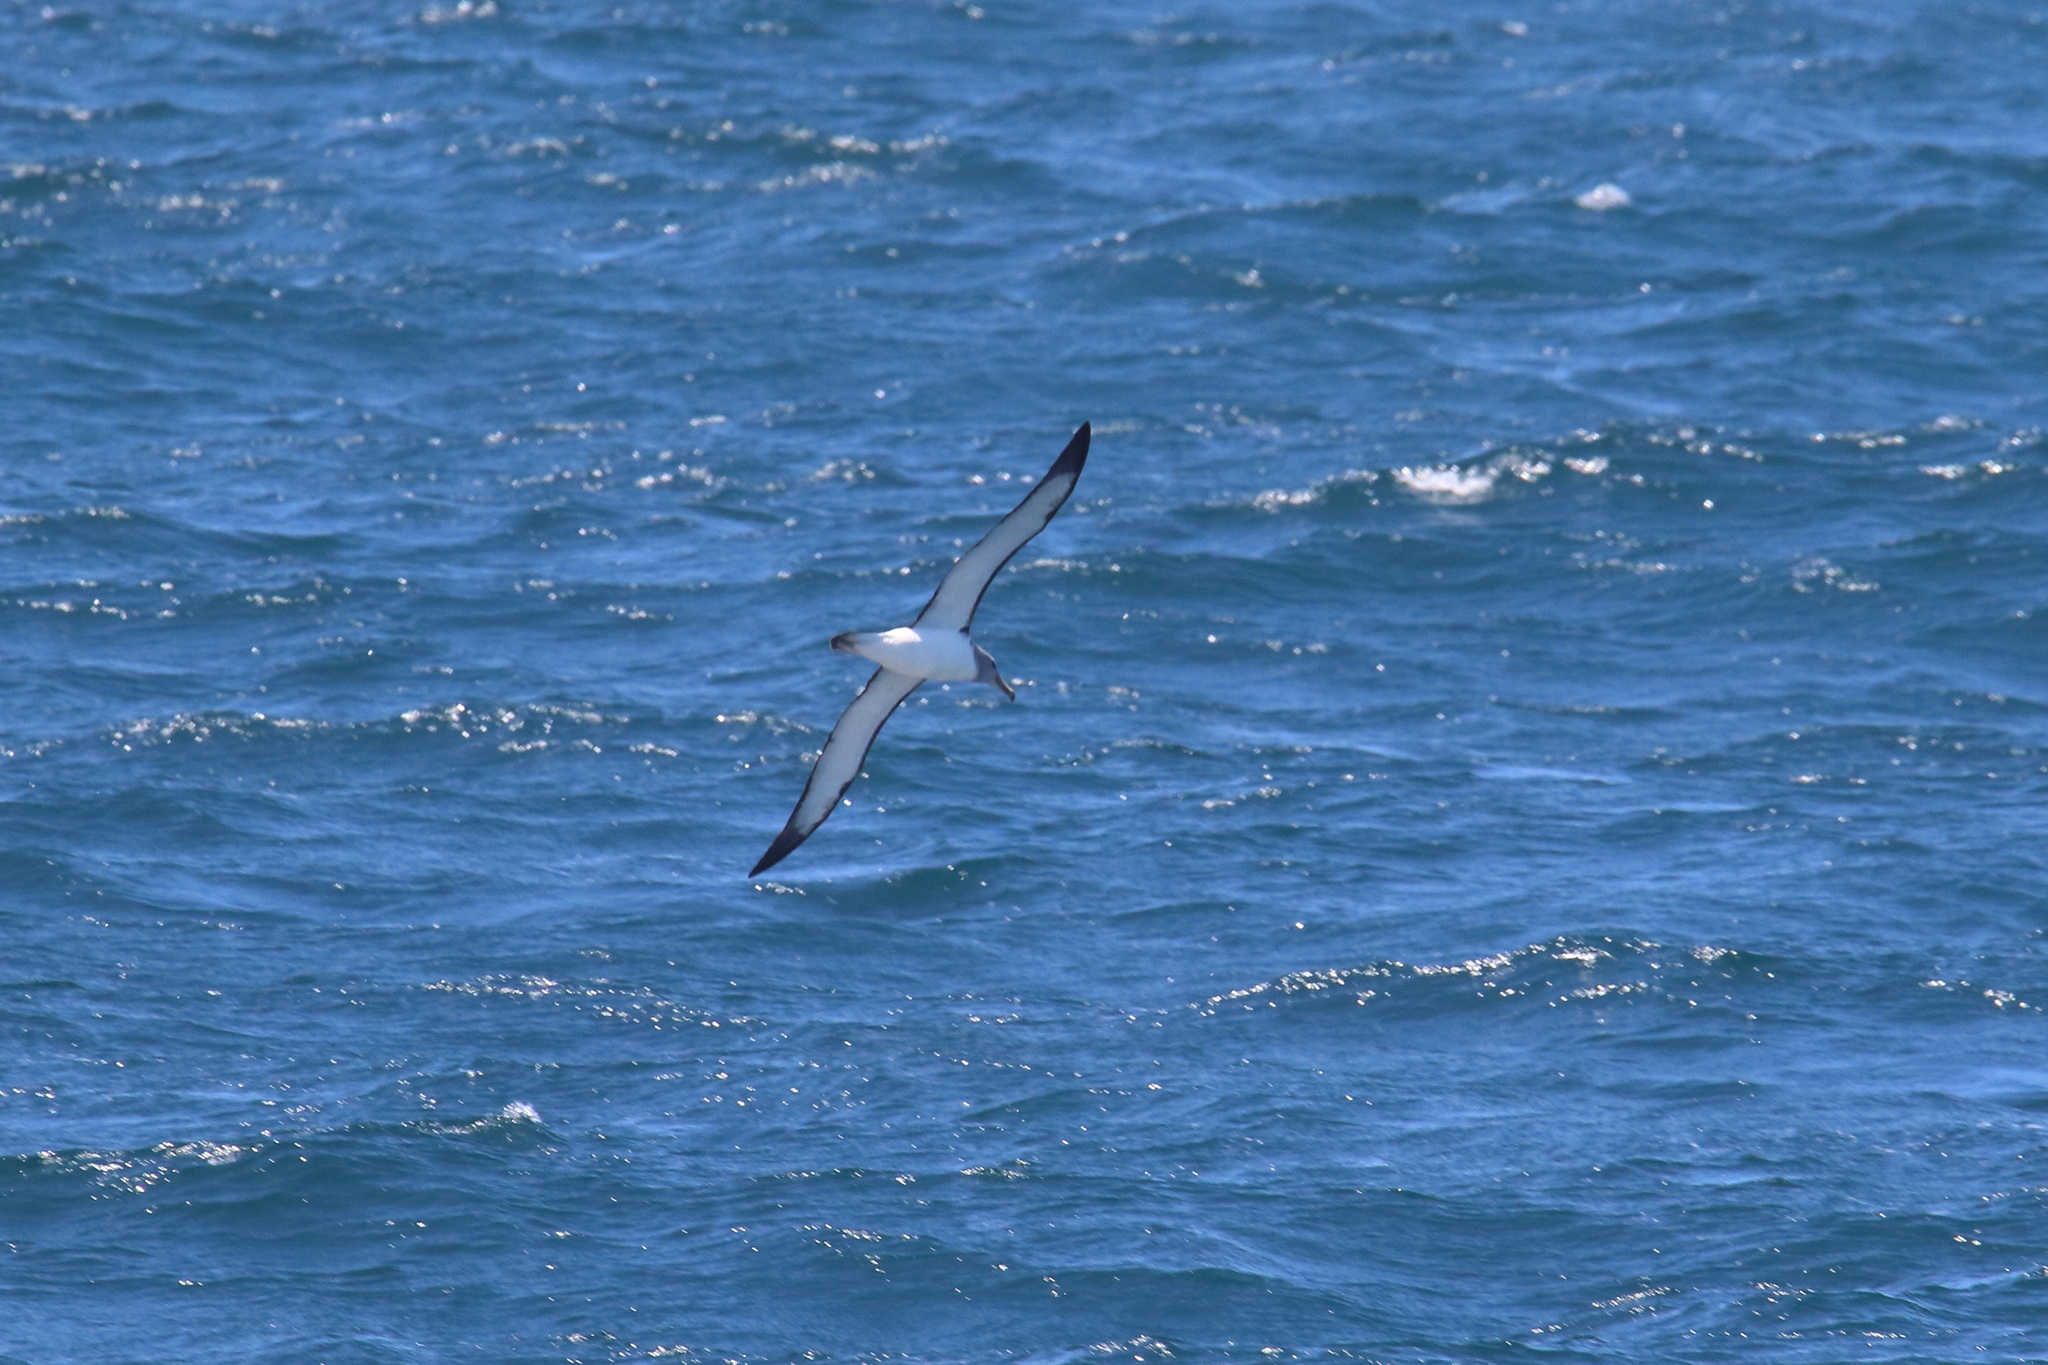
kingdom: Animalia
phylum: Chordata
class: Aves
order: Procellariiformes
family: Diomedeidae
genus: Thalassarche
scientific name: Thalassarche salvini
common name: Salvin's albatross
